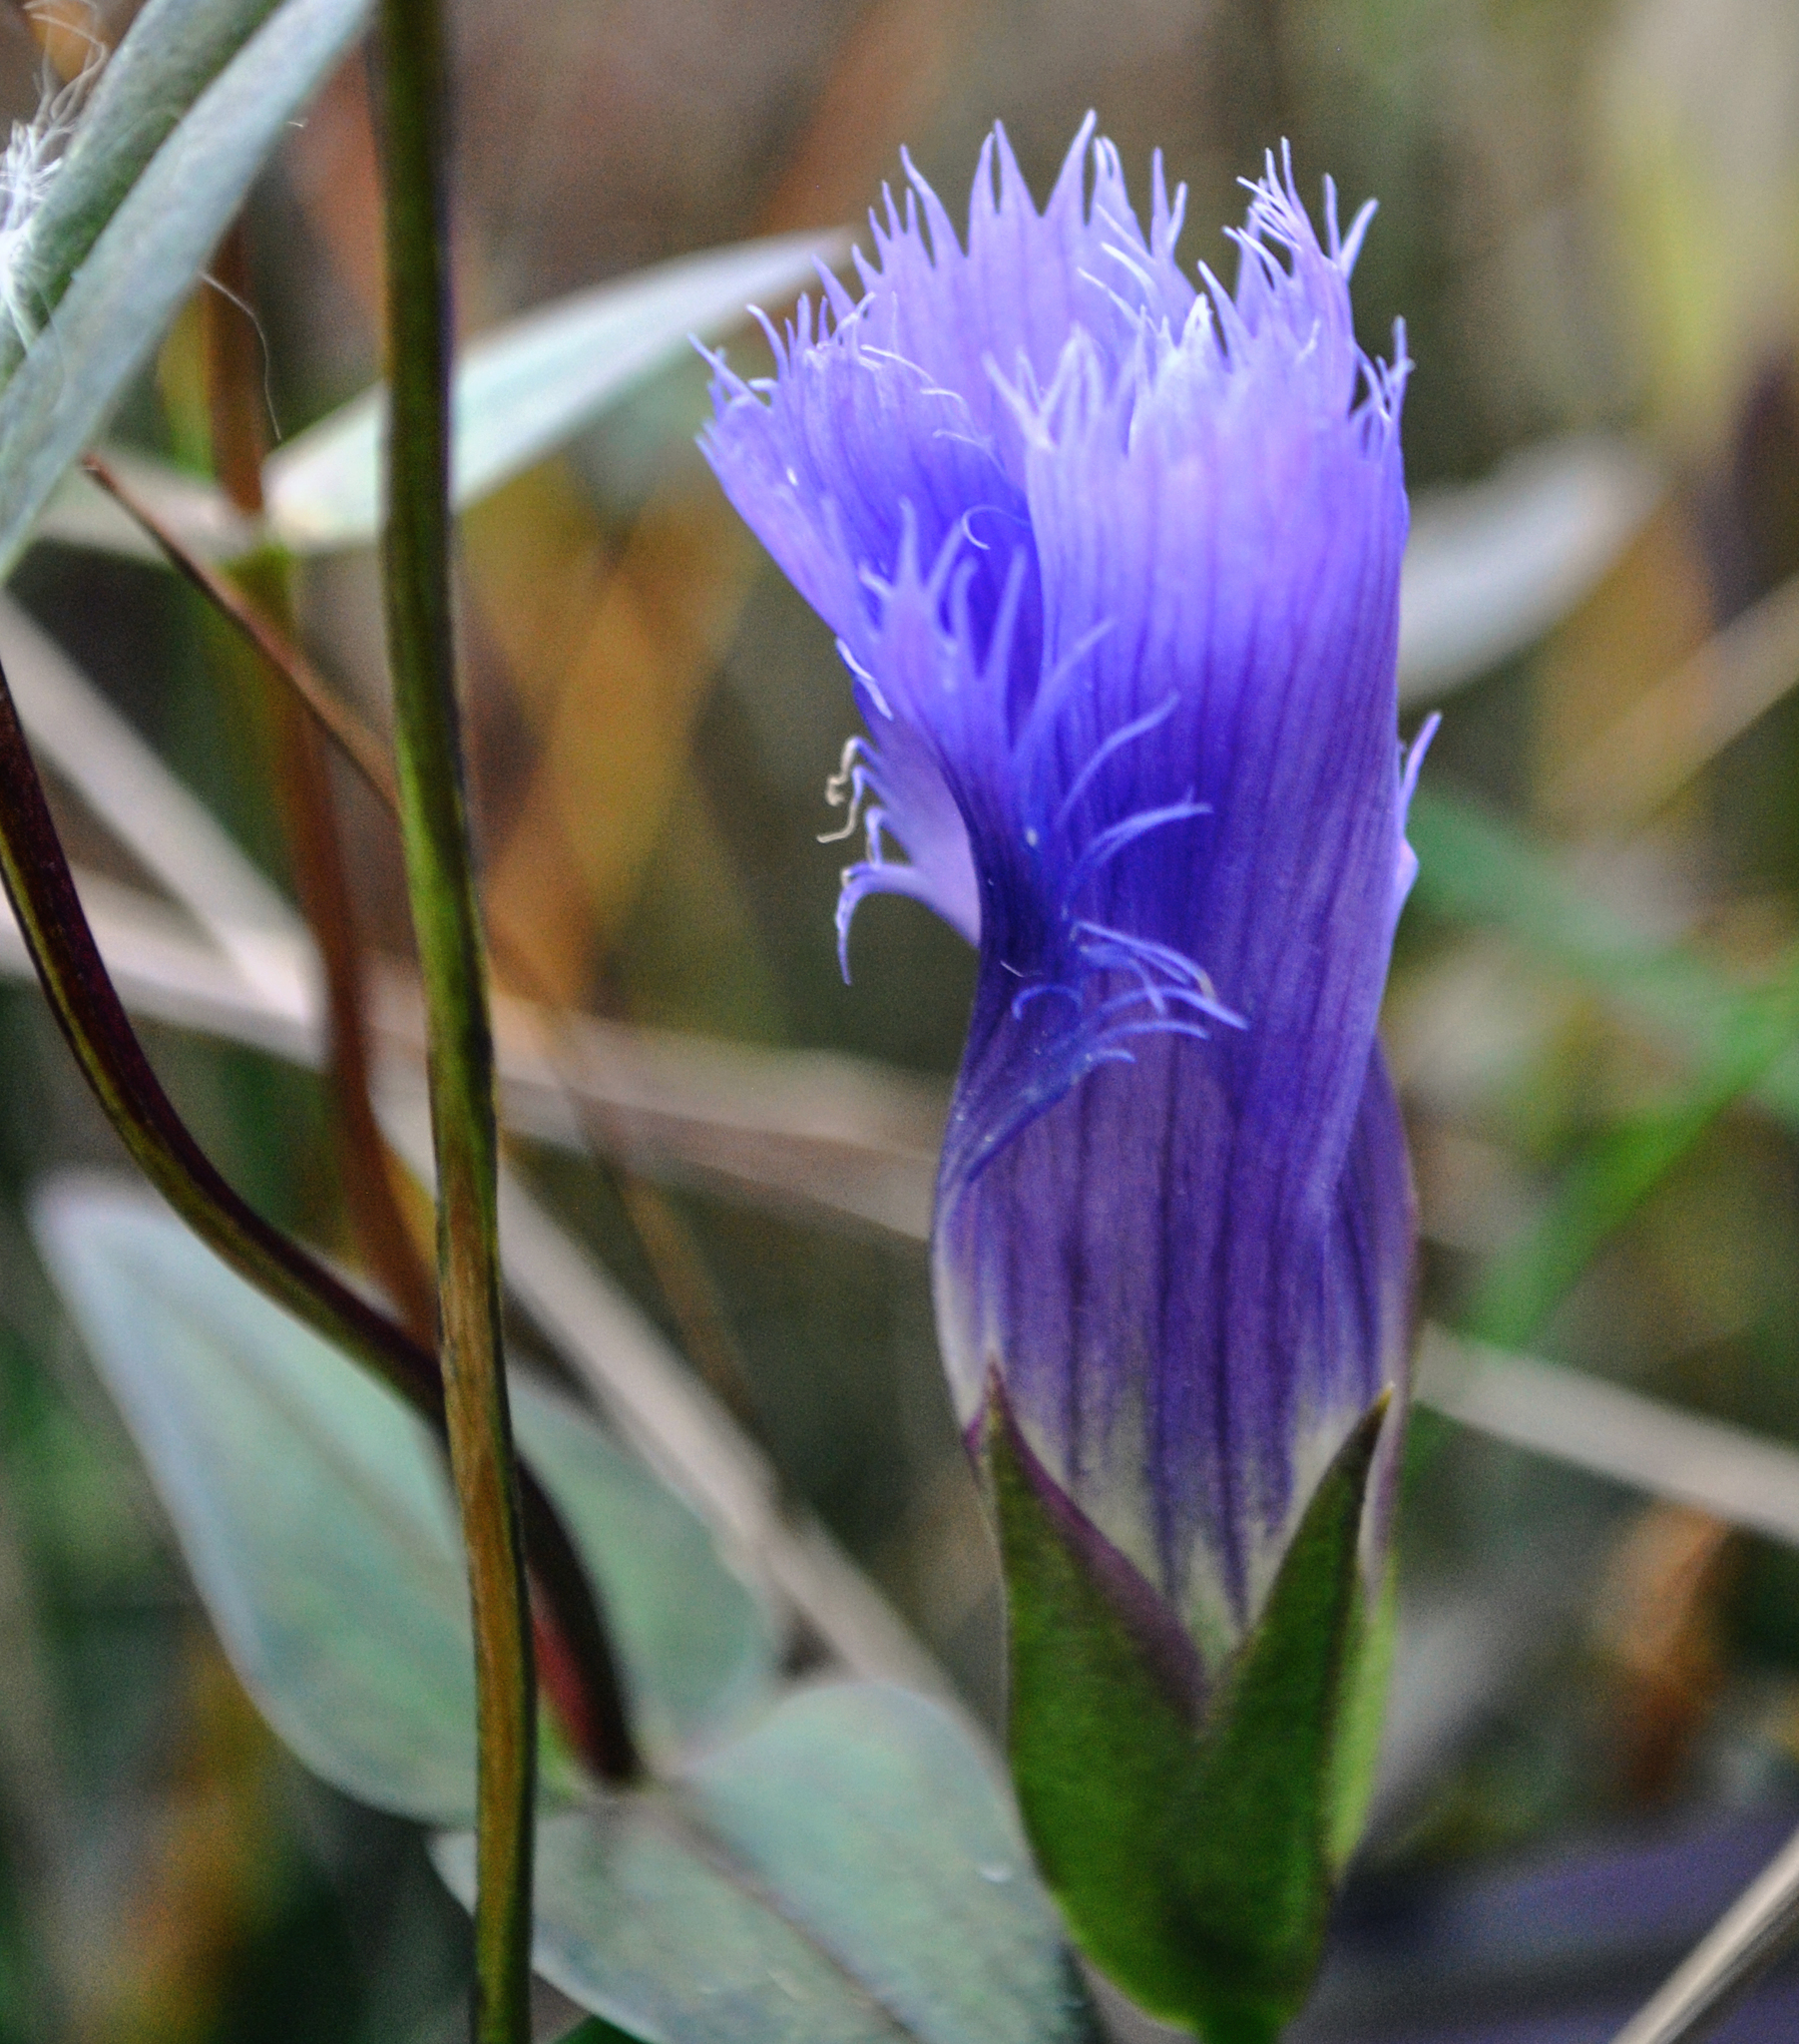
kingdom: Plantae
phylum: Tracheophyta
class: Magnoliopsida
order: Gentianales
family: Gentianaceae
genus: Gentianopsis
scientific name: Gentianopsis crinita
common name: Fringed-gentian
